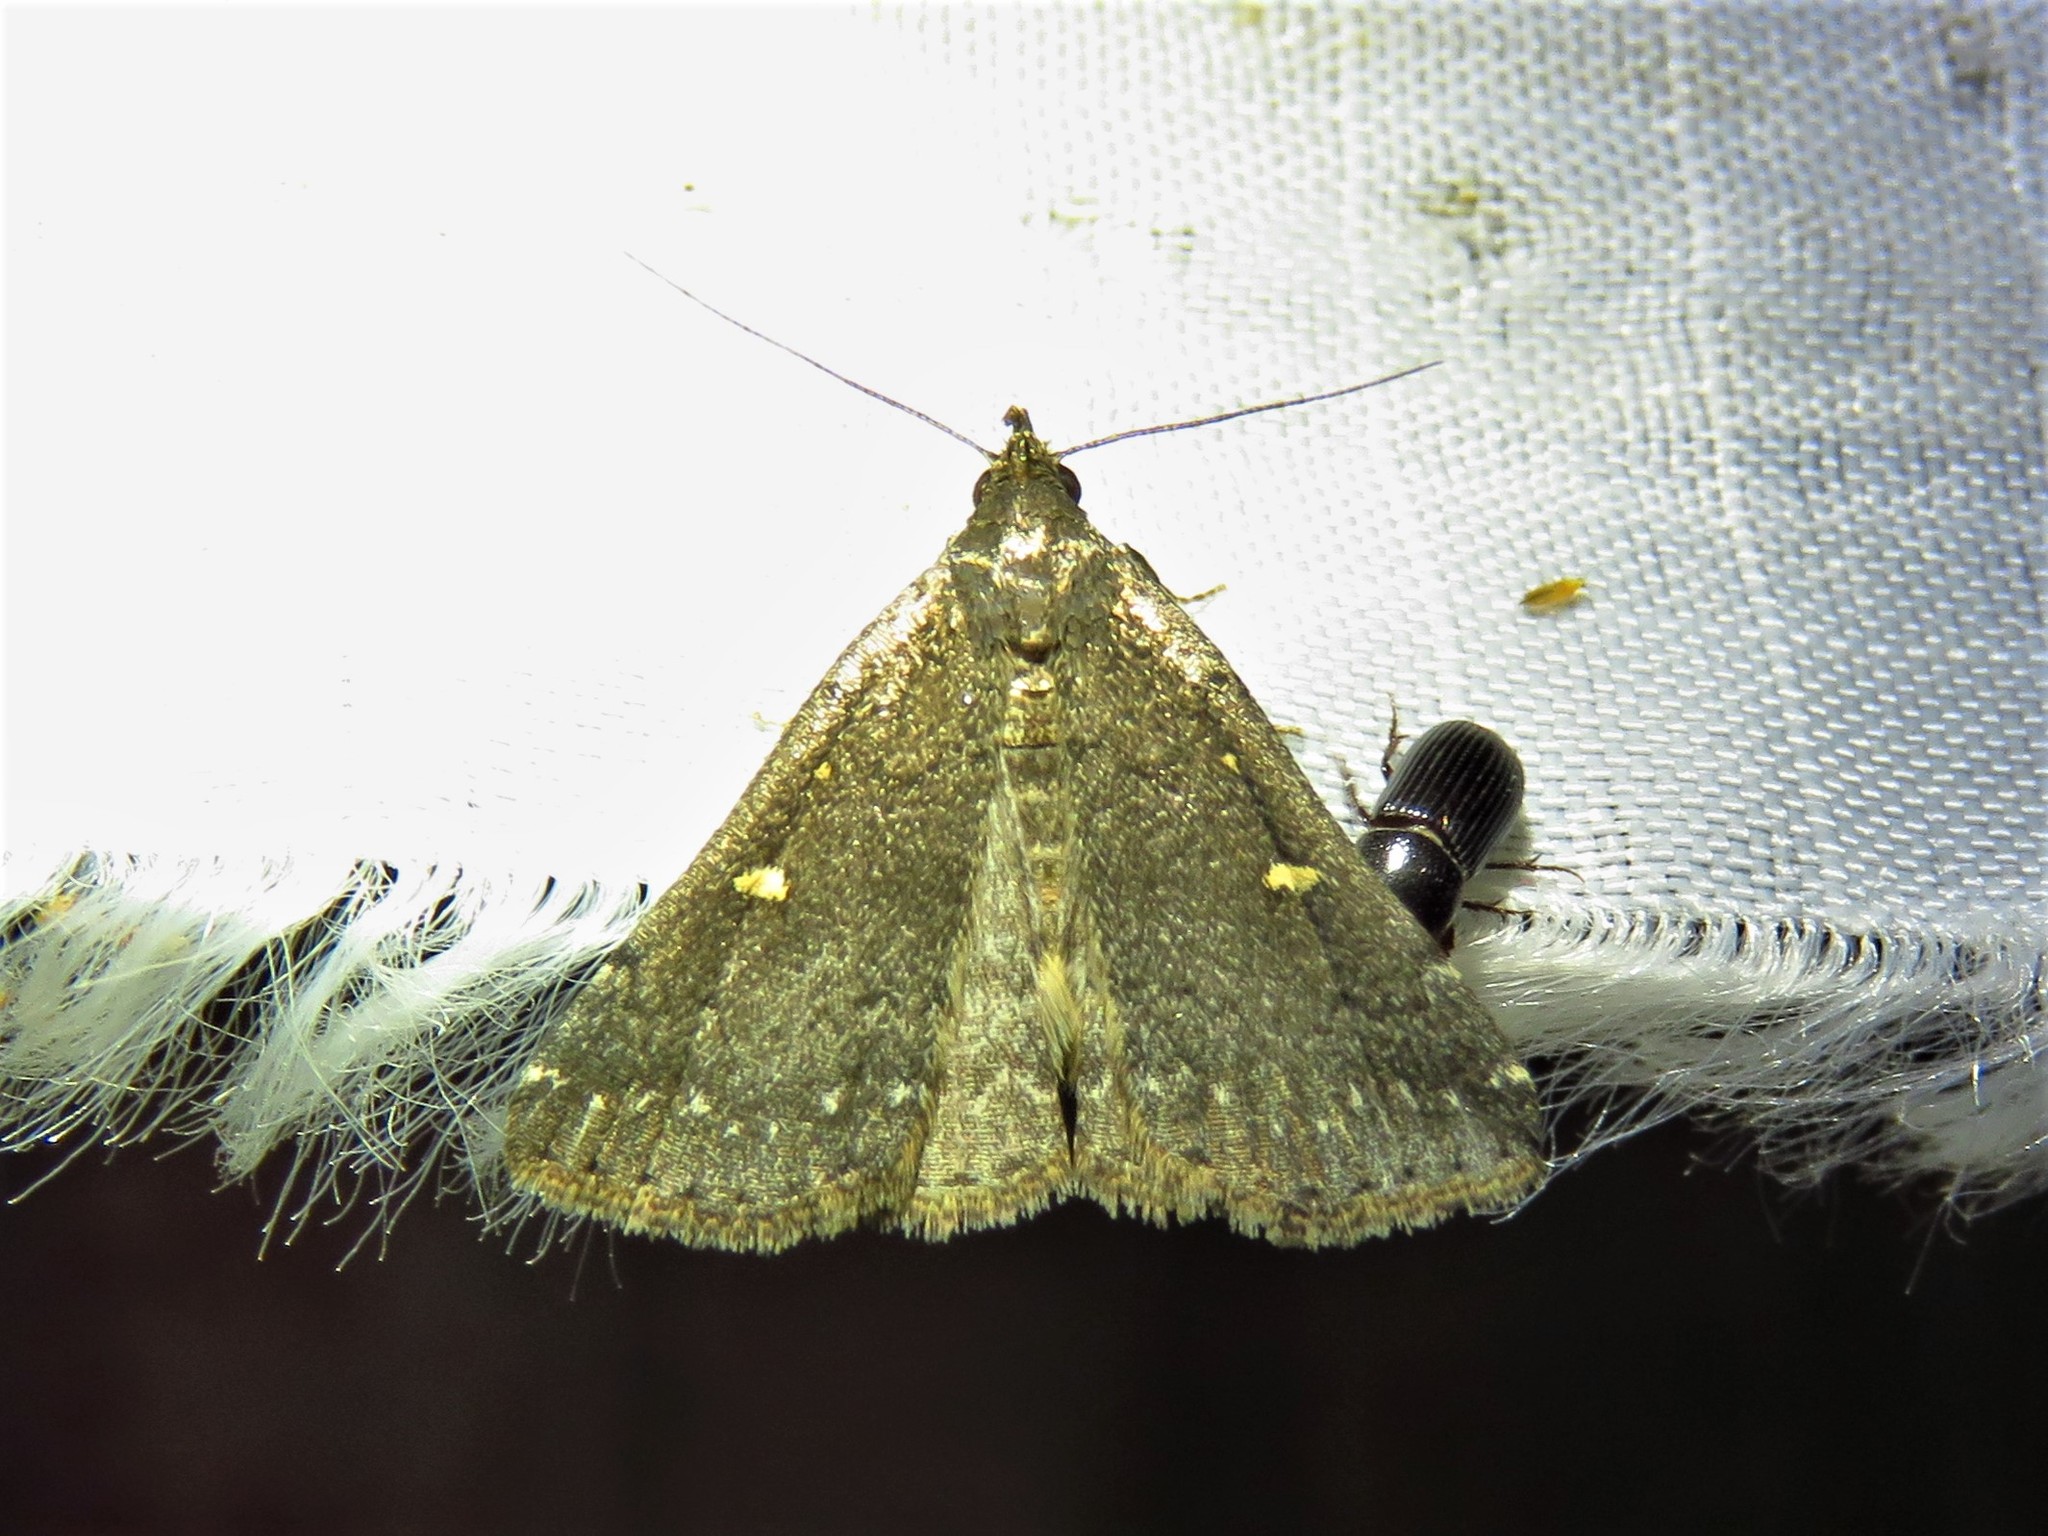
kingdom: Animalia
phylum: Arthropoda
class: Insecta
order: Lepidoptera
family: Erebidae
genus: Tetanolita
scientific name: Tetanolita mynesalis
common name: Smoky tetanolita moth
